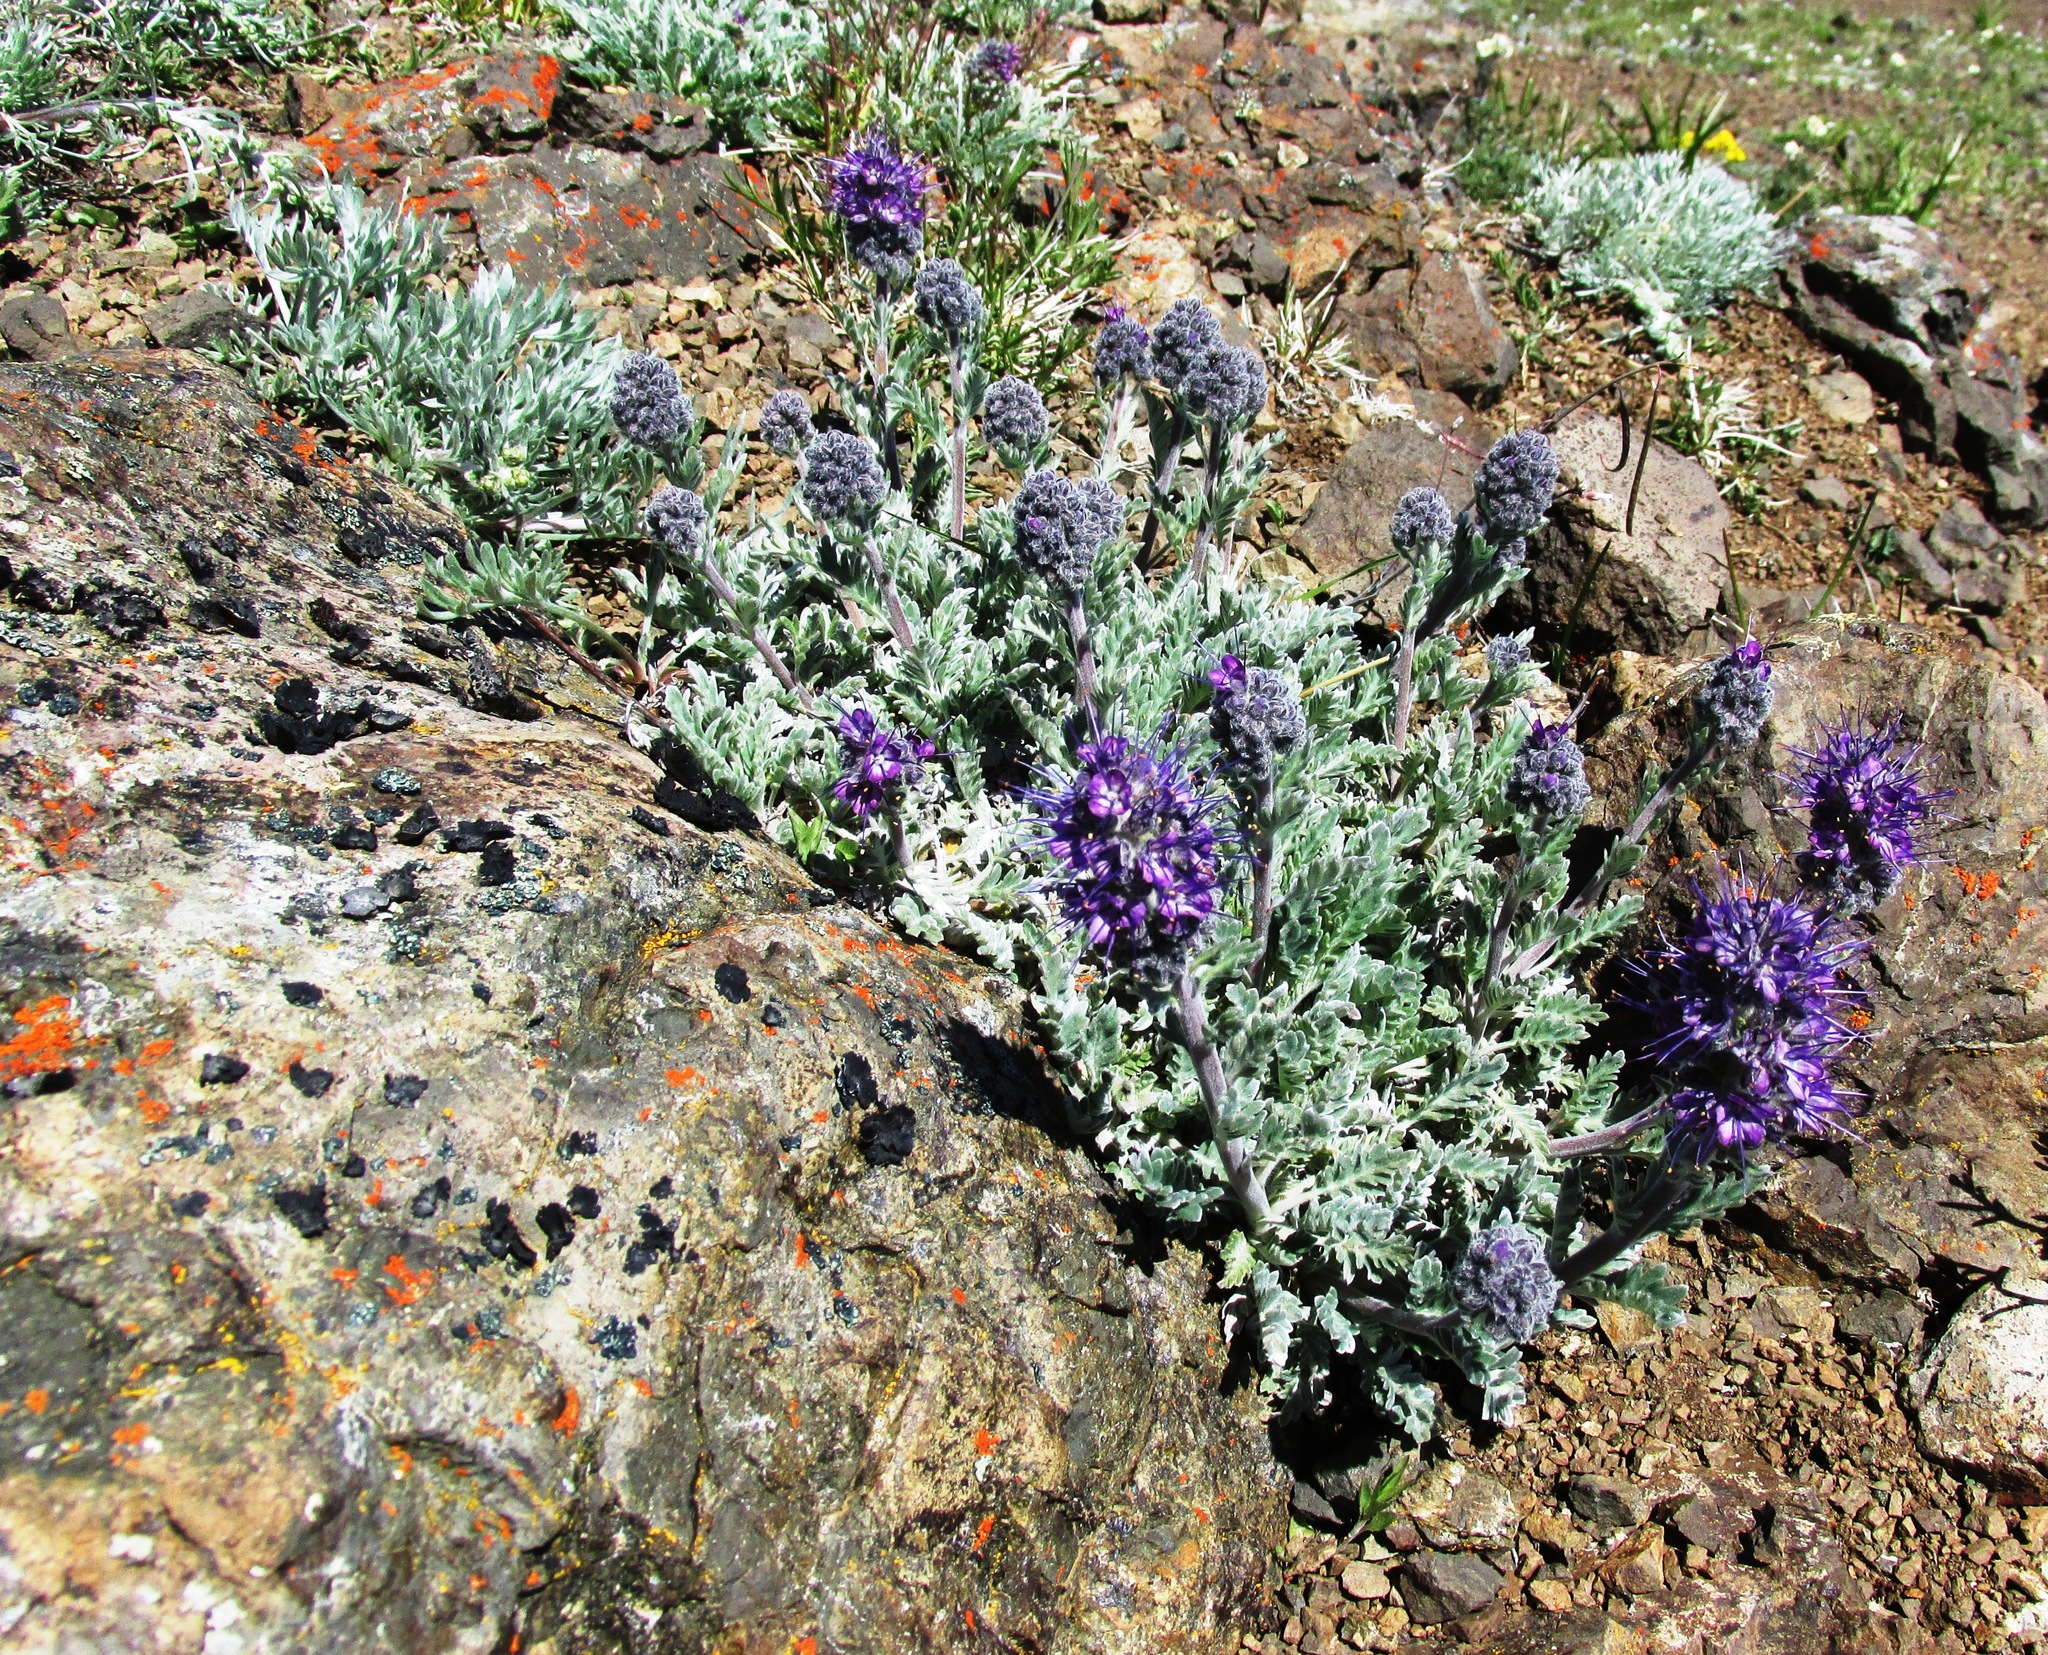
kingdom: Plantae
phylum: Tracheophyta
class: Magnoliopsida
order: Boraginales
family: Hydrophyllaceae
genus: Phacelia
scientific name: Phacelia sericea
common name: Silky phacelia
